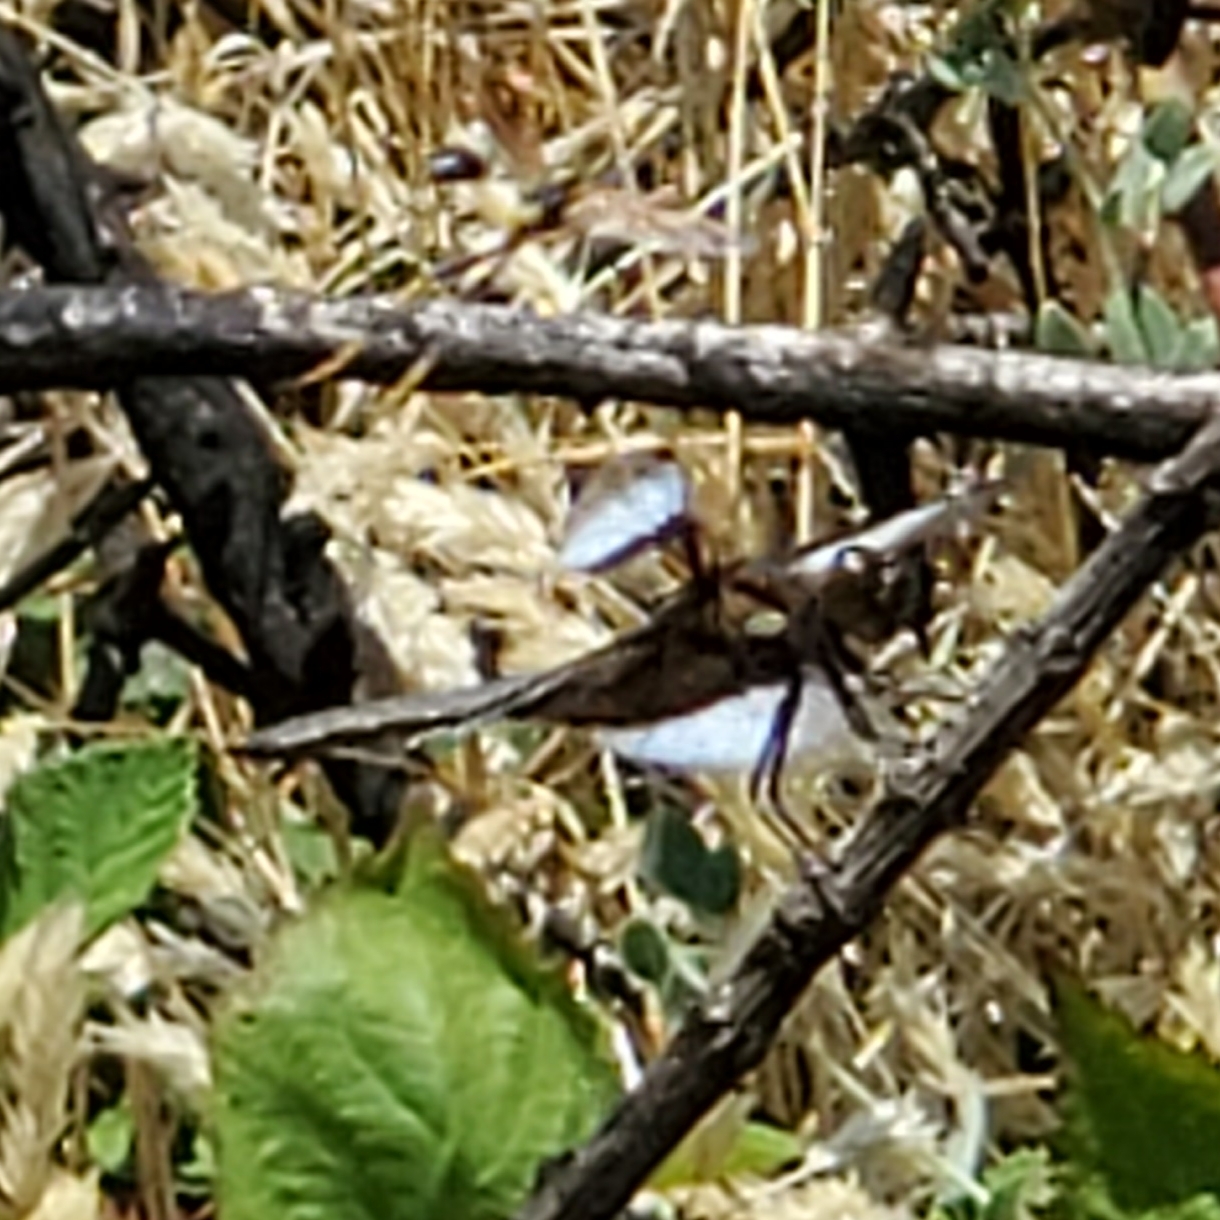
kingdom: Animalia
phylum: Arthropoda
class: Insecta
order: Odonata
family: Libellulidae
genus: Libellula
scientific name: Libellula luctuosa
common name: Widow skimmer
